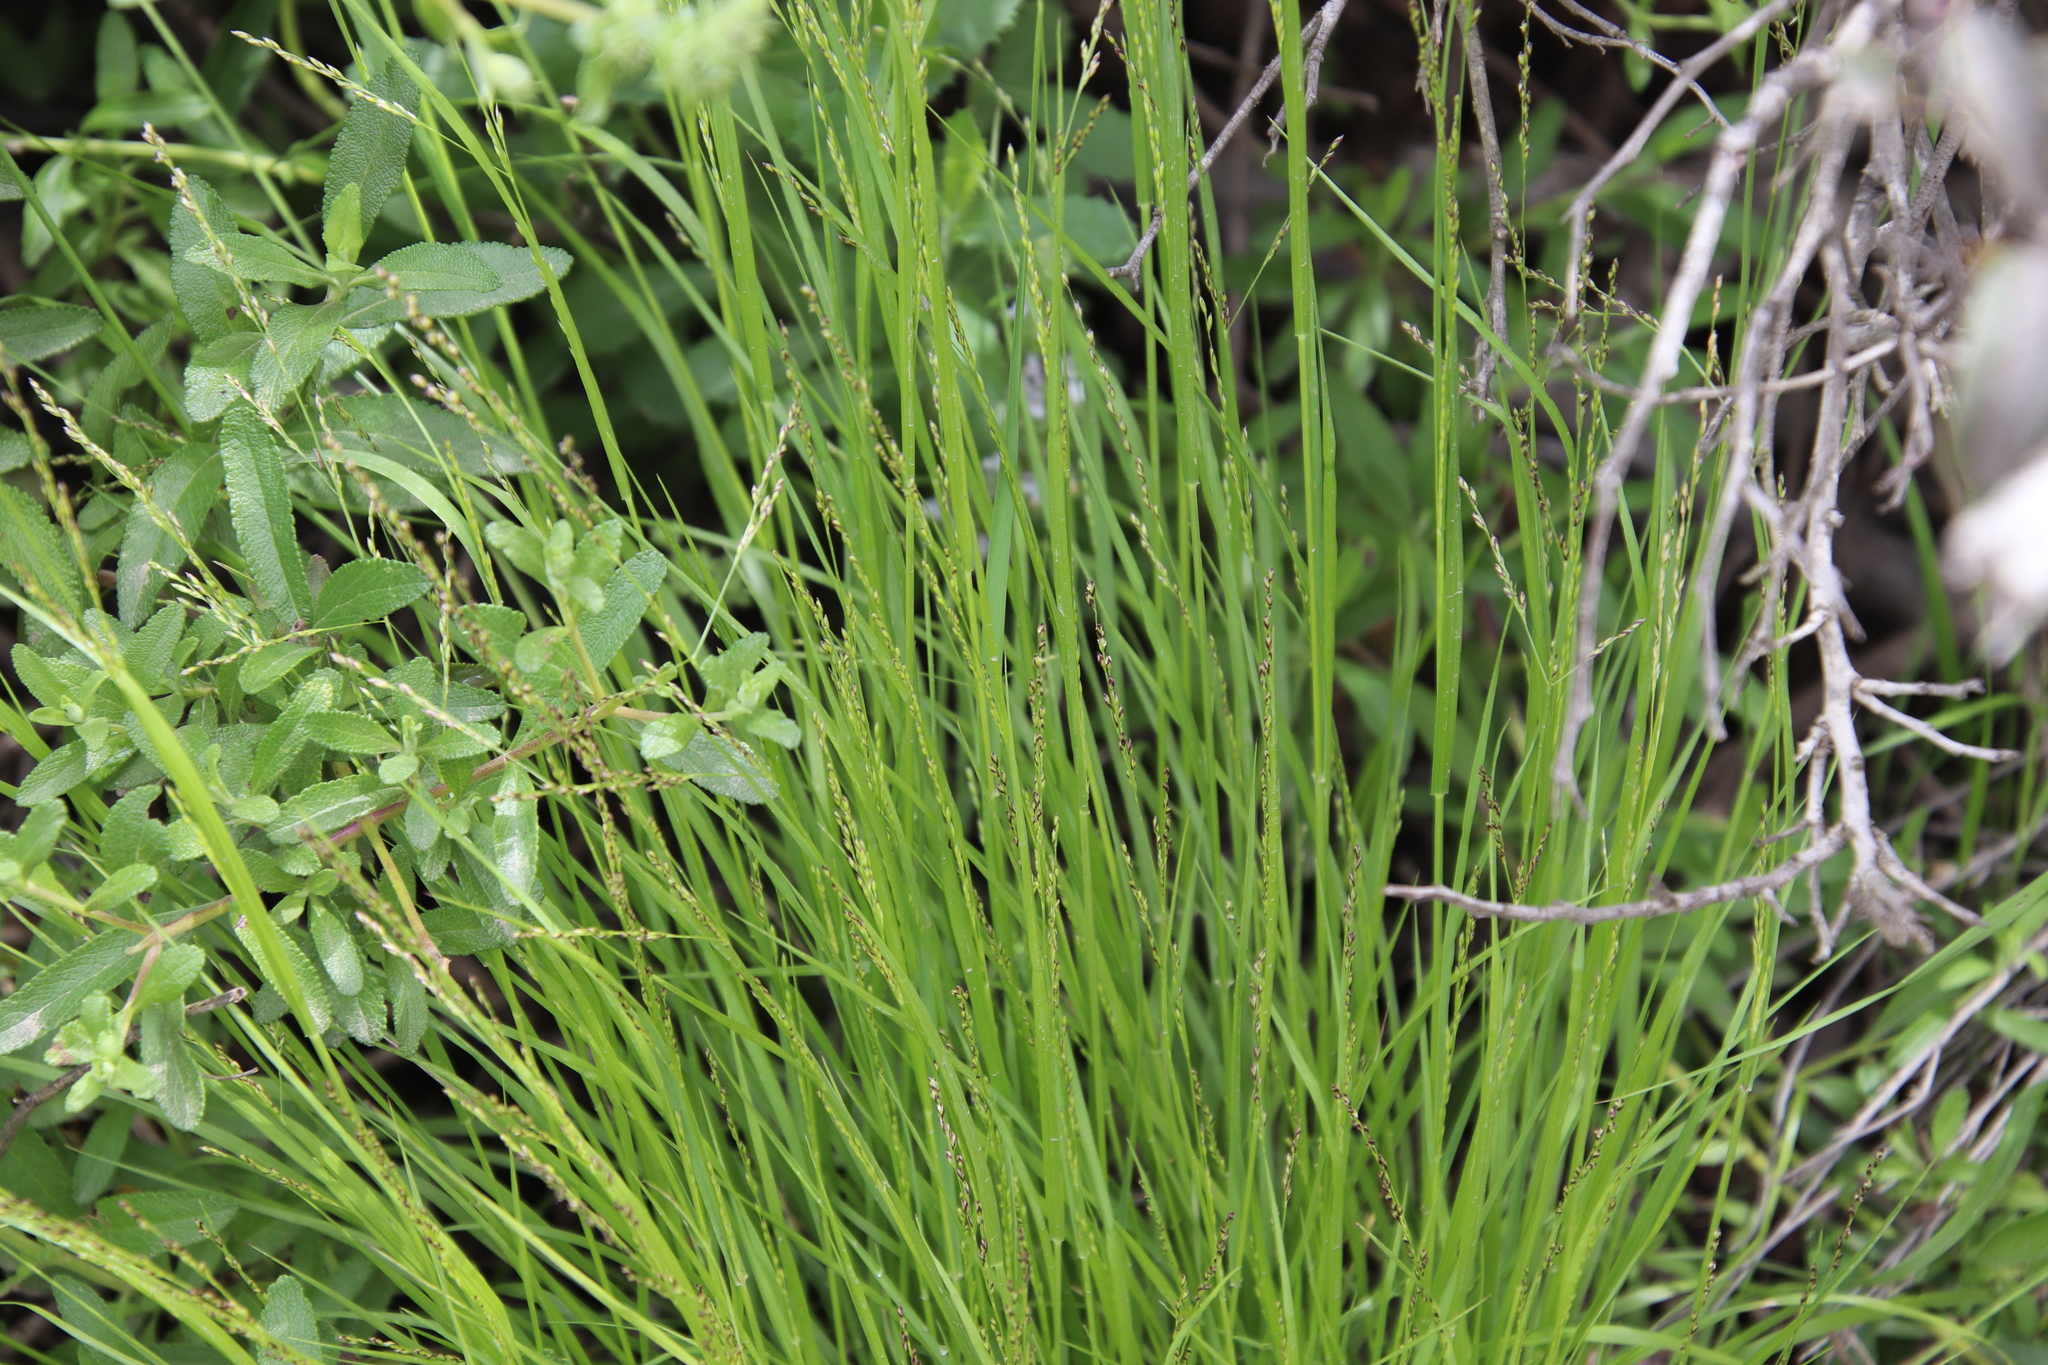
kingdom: Plantae
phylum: Tracheophyta
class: Liliopsida
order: Poales
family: Poaceae
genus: Melica
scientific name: Melica imperfecta
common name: California melic
